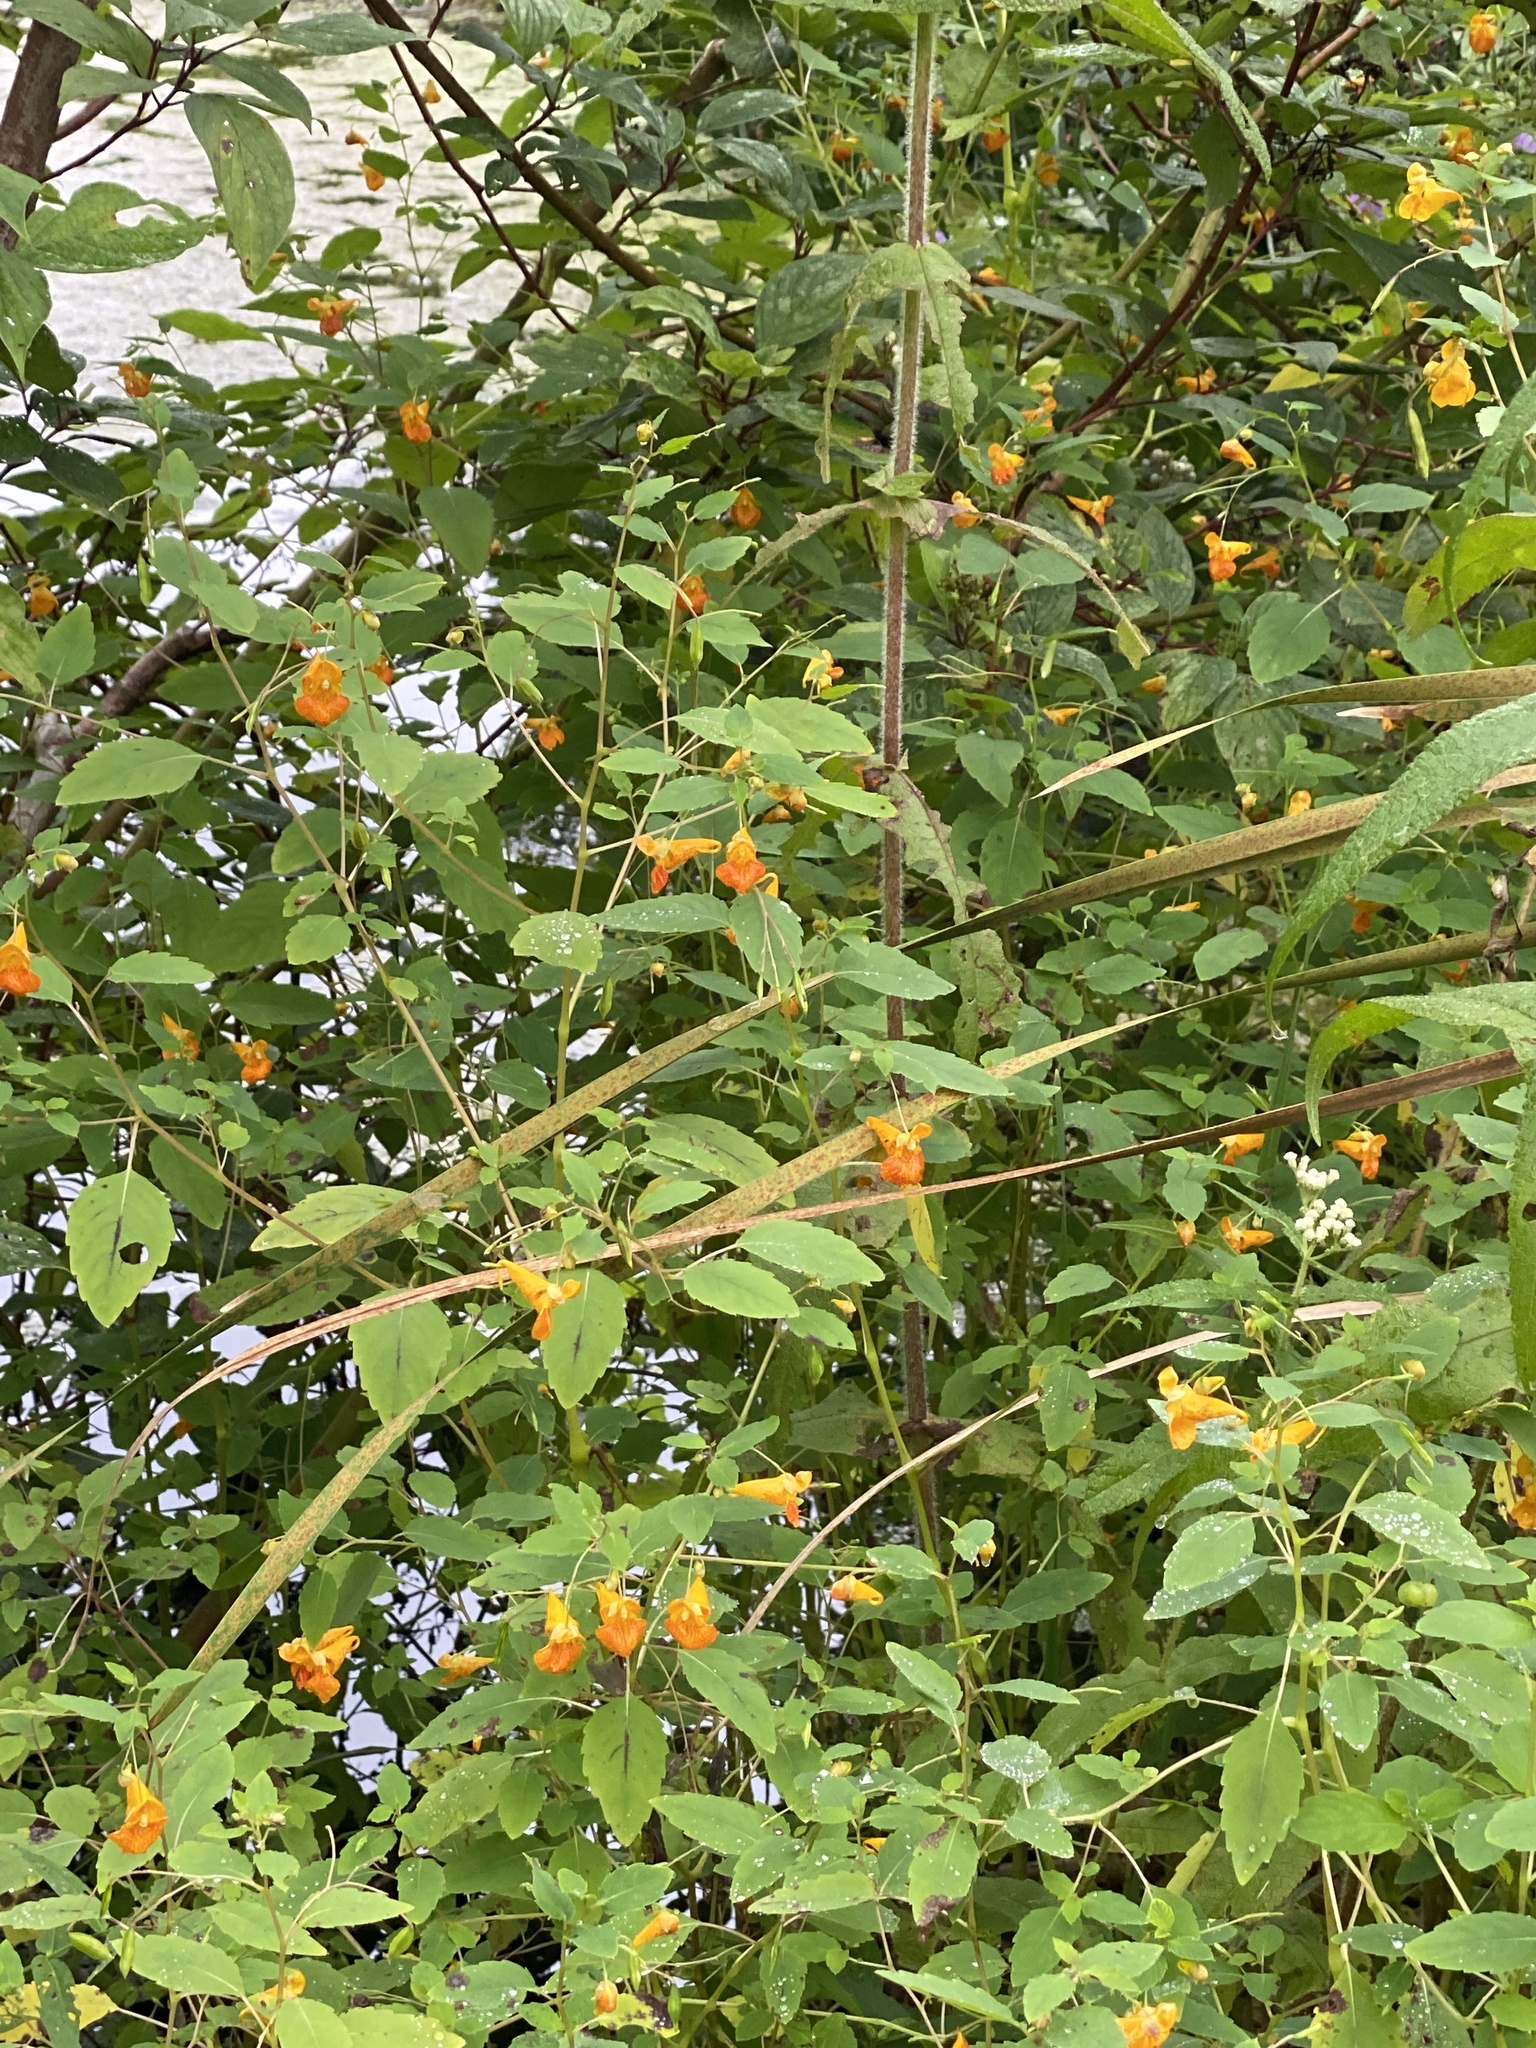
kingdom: Plantae
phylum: Tracheophyta
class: Magnoliopsida
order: Ericales
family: Balsaminaceae
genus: Impatiens
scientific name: Impatiens capensis
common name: Orange balsam
